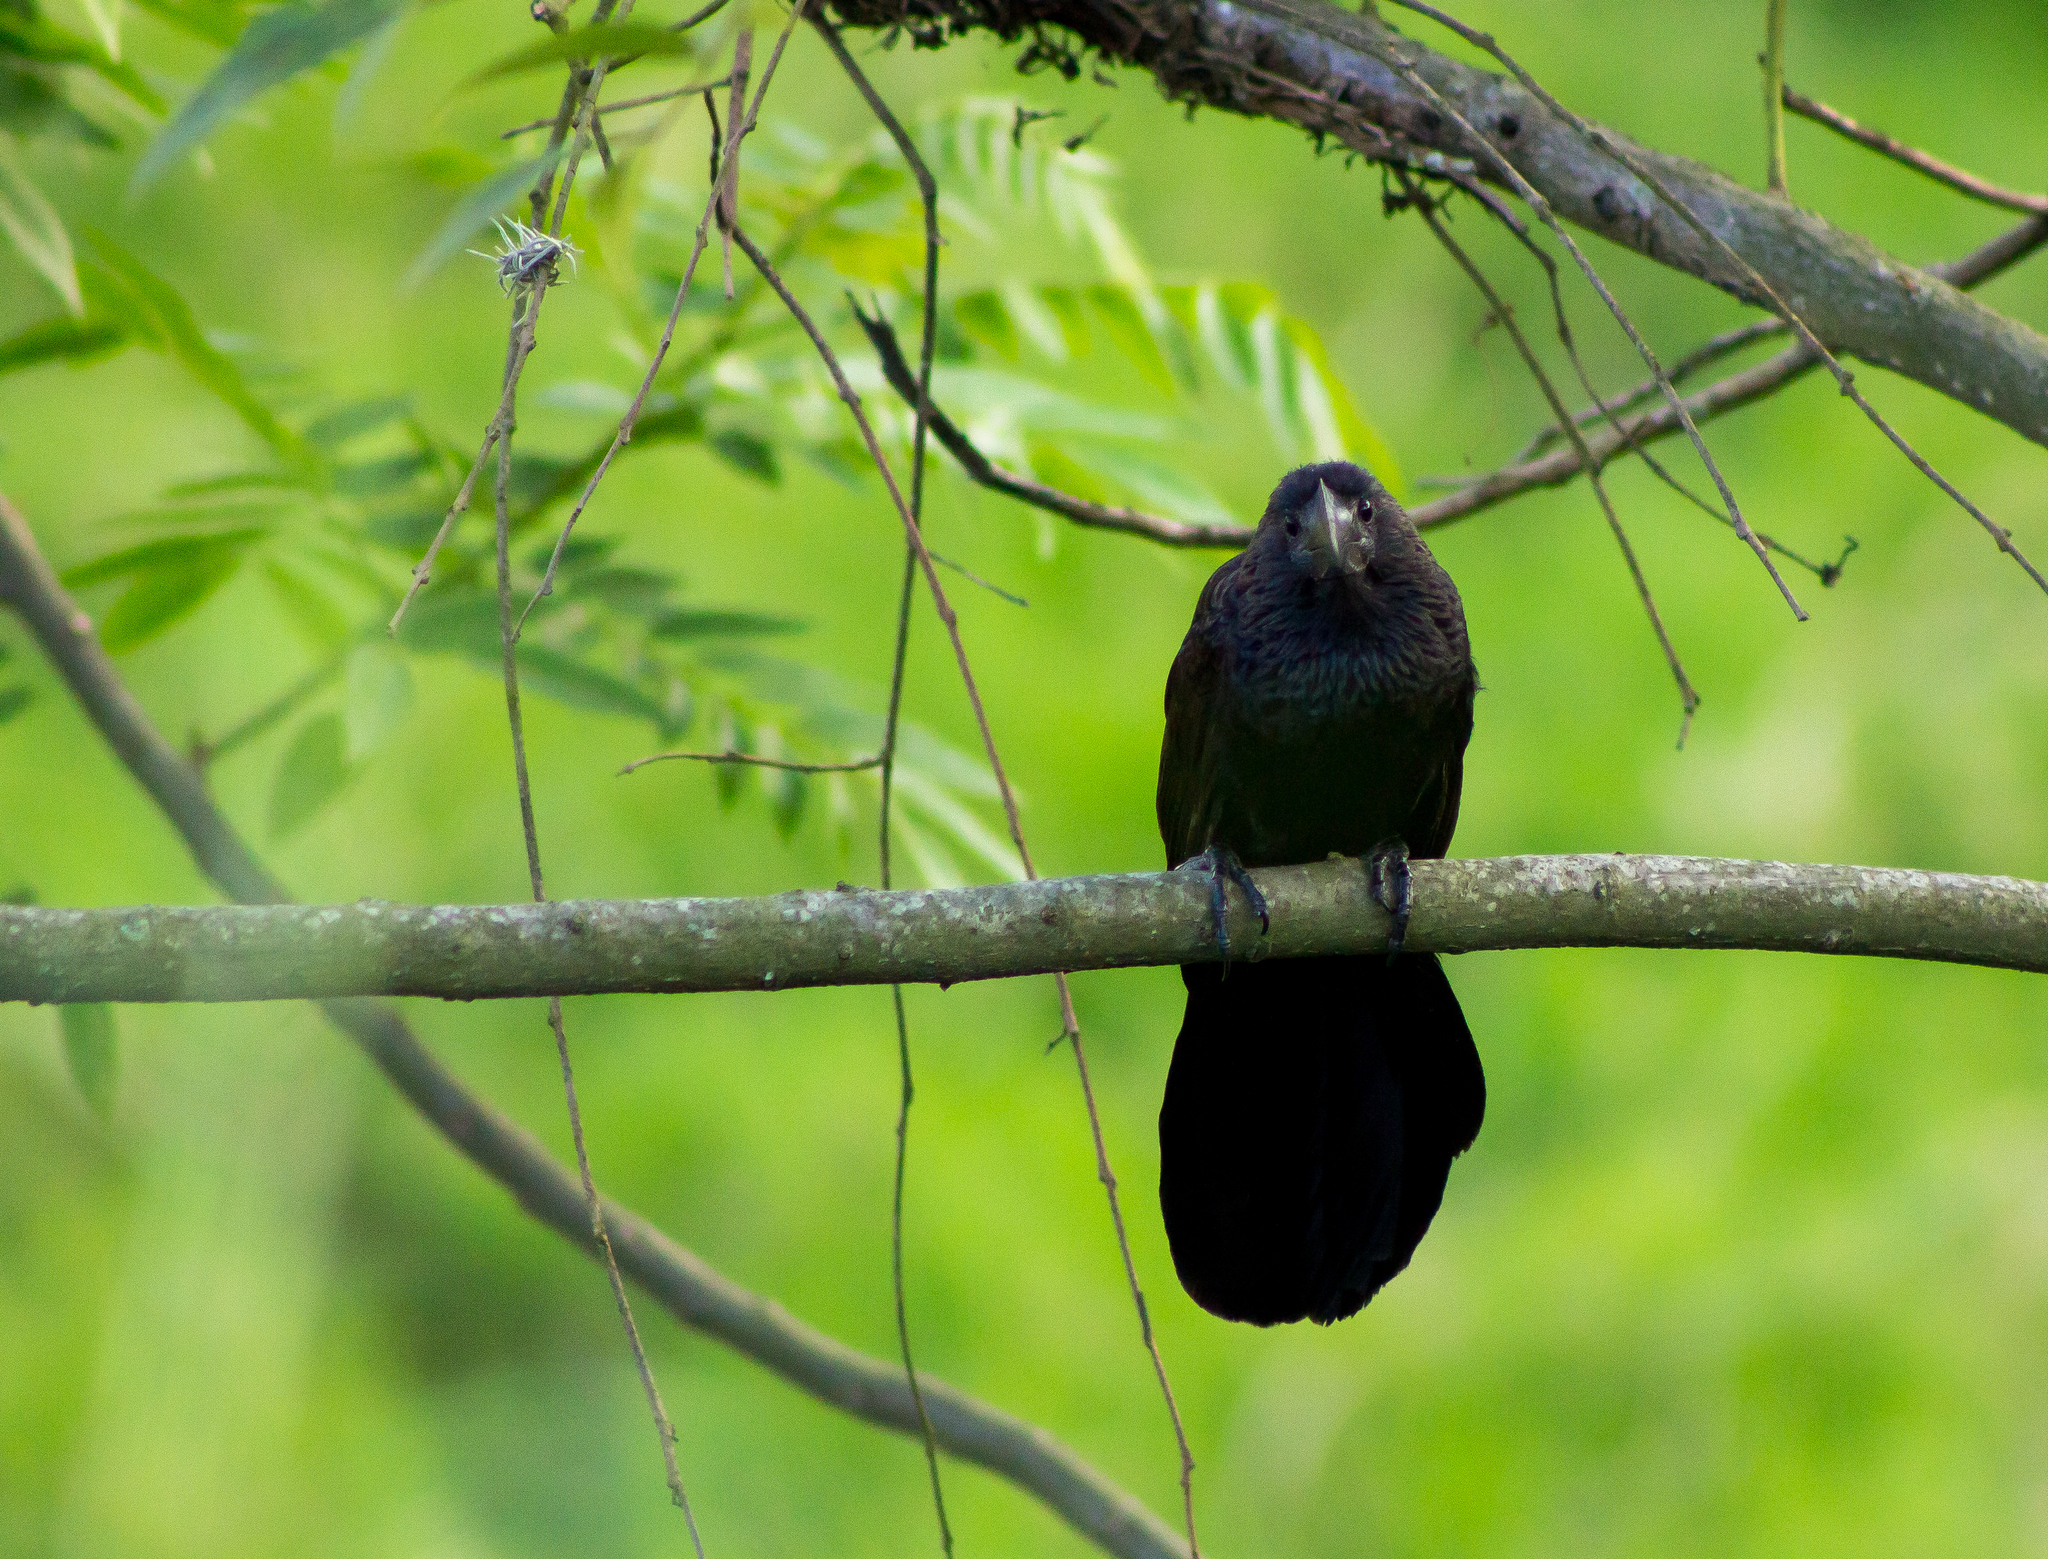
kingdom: Animalia
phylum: Chordata
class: Aves
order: Cuculiformes
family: Cuculidae
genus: Crotophaga
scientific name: Crotophaga ani
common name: Smooth-billed ani
